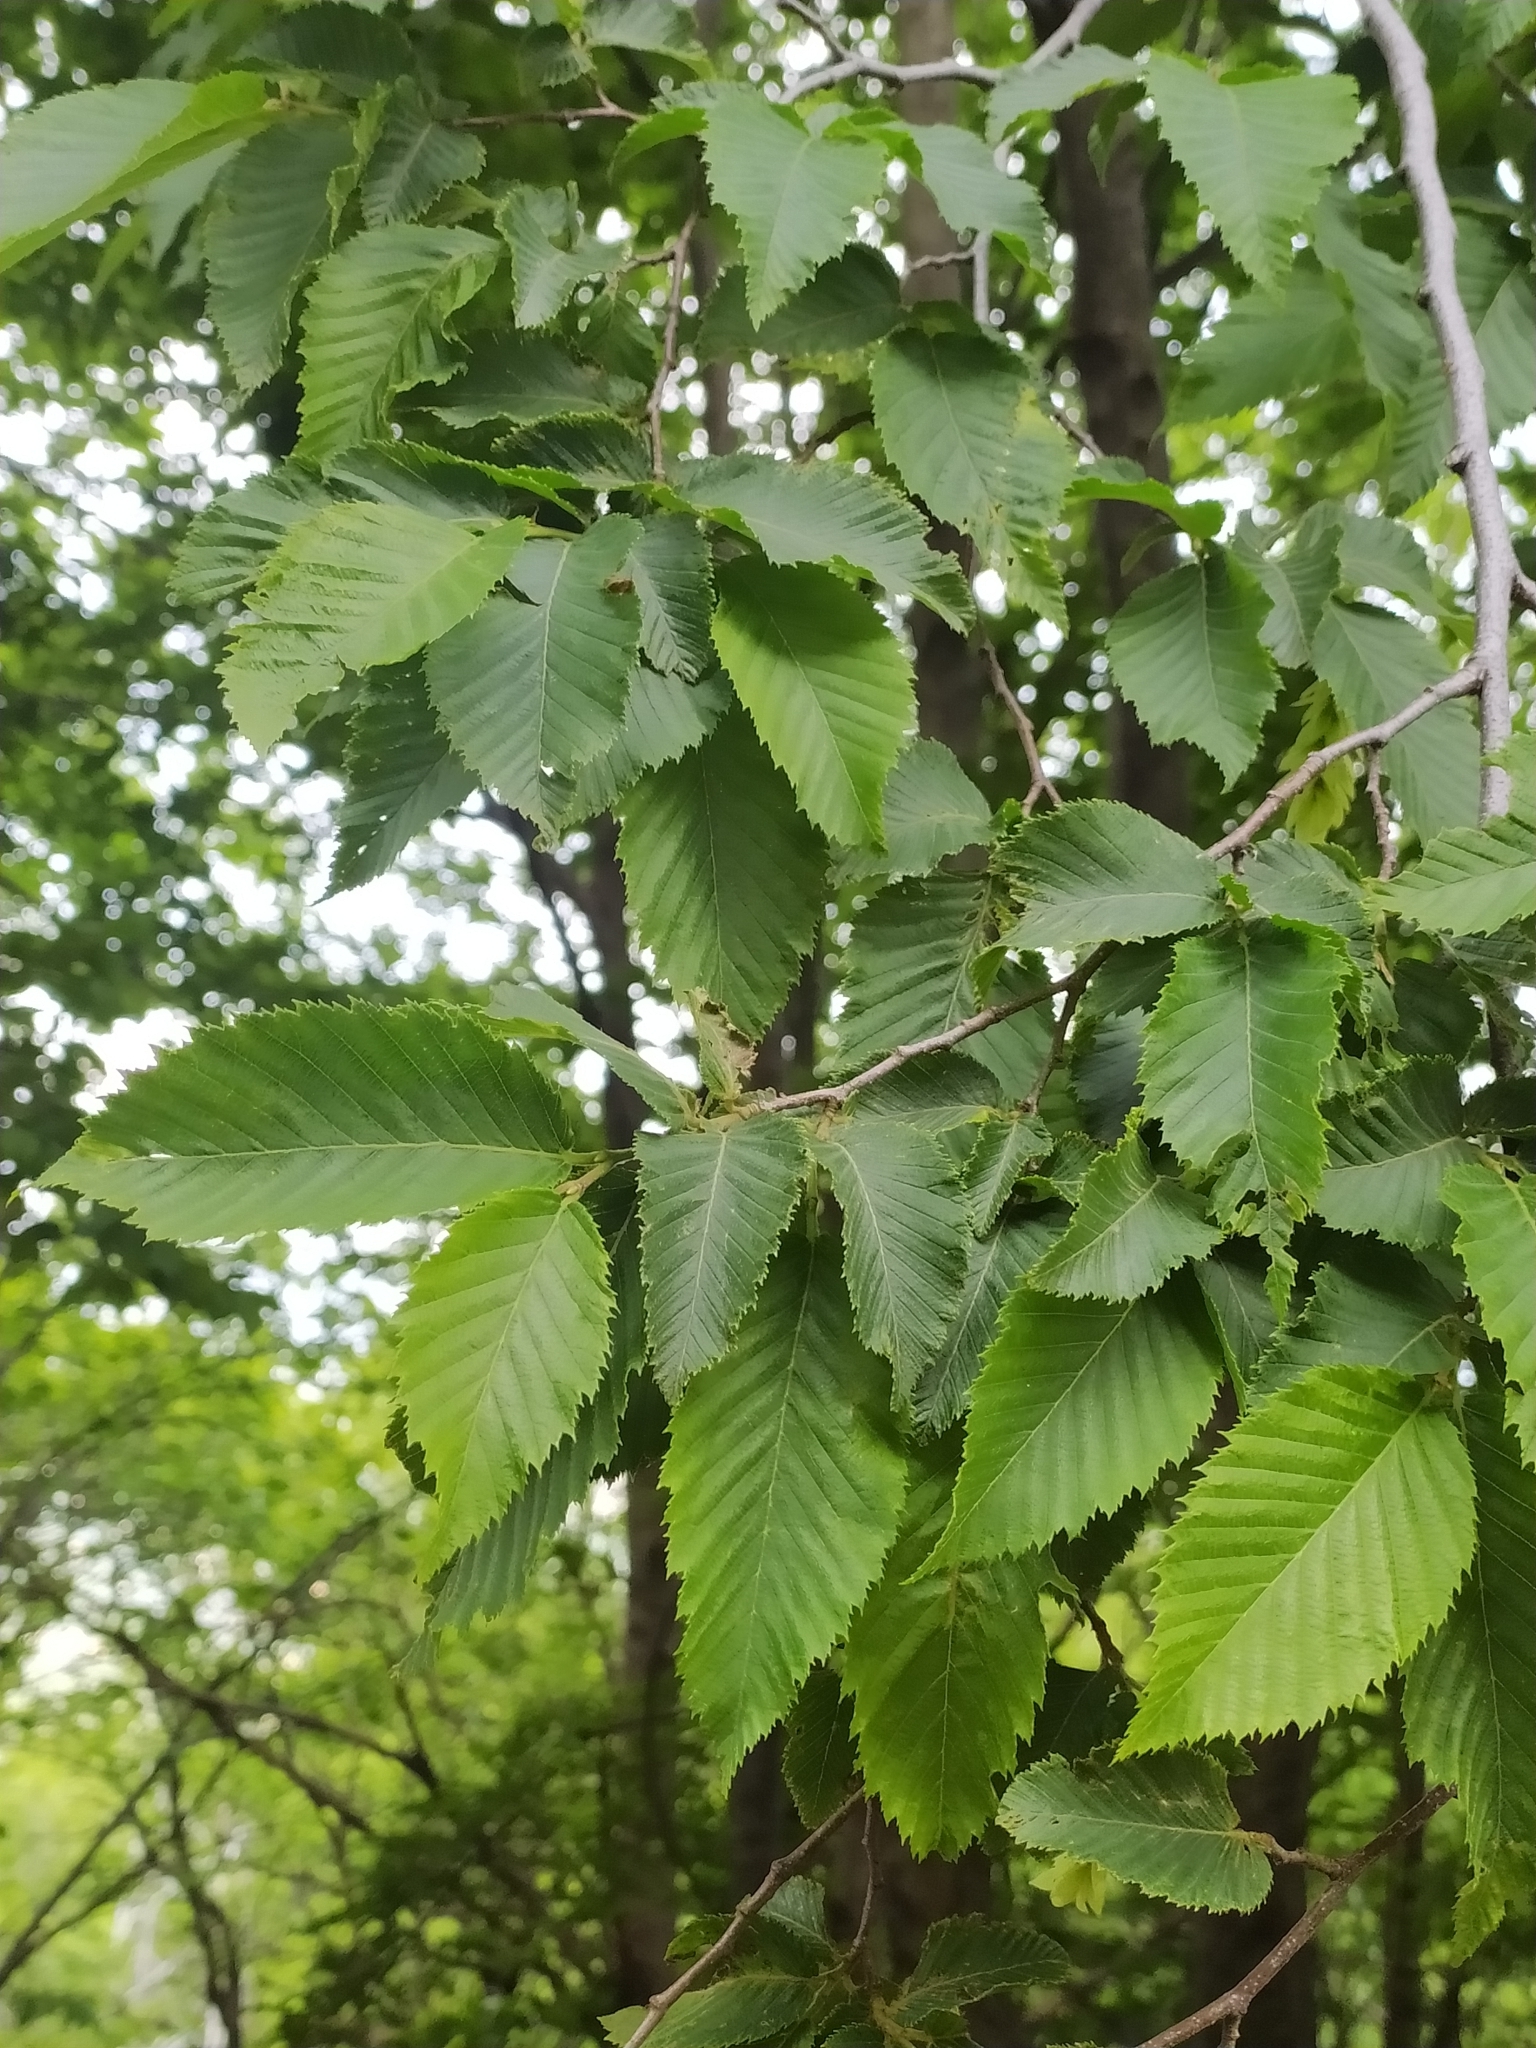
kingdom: Plantae
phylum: Tracheophyta
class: Magnoliopsida
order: Fagales
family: Betulaceae
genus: Ostrya
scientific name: Ostrya carpinifolia
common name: European hop-hornbeam
